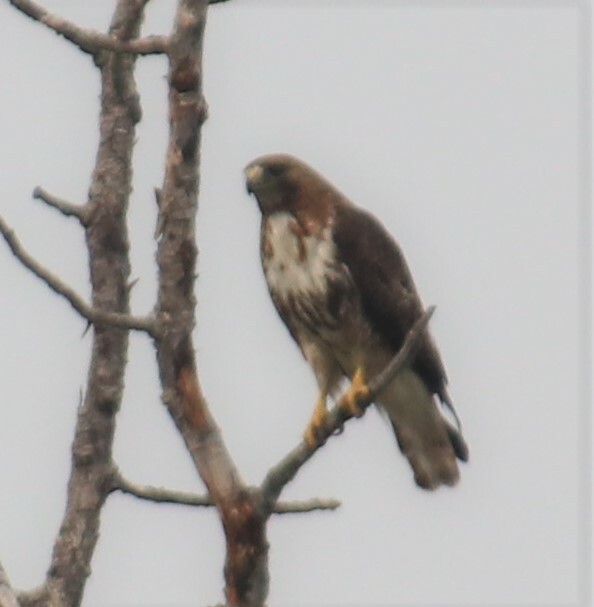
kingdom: Animalia
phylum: Chordata
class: Aves
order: Accipitriformes
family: Accipitridae
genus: Buteo
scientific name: Buteo jamaicensis
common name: Red-tailed hawk
